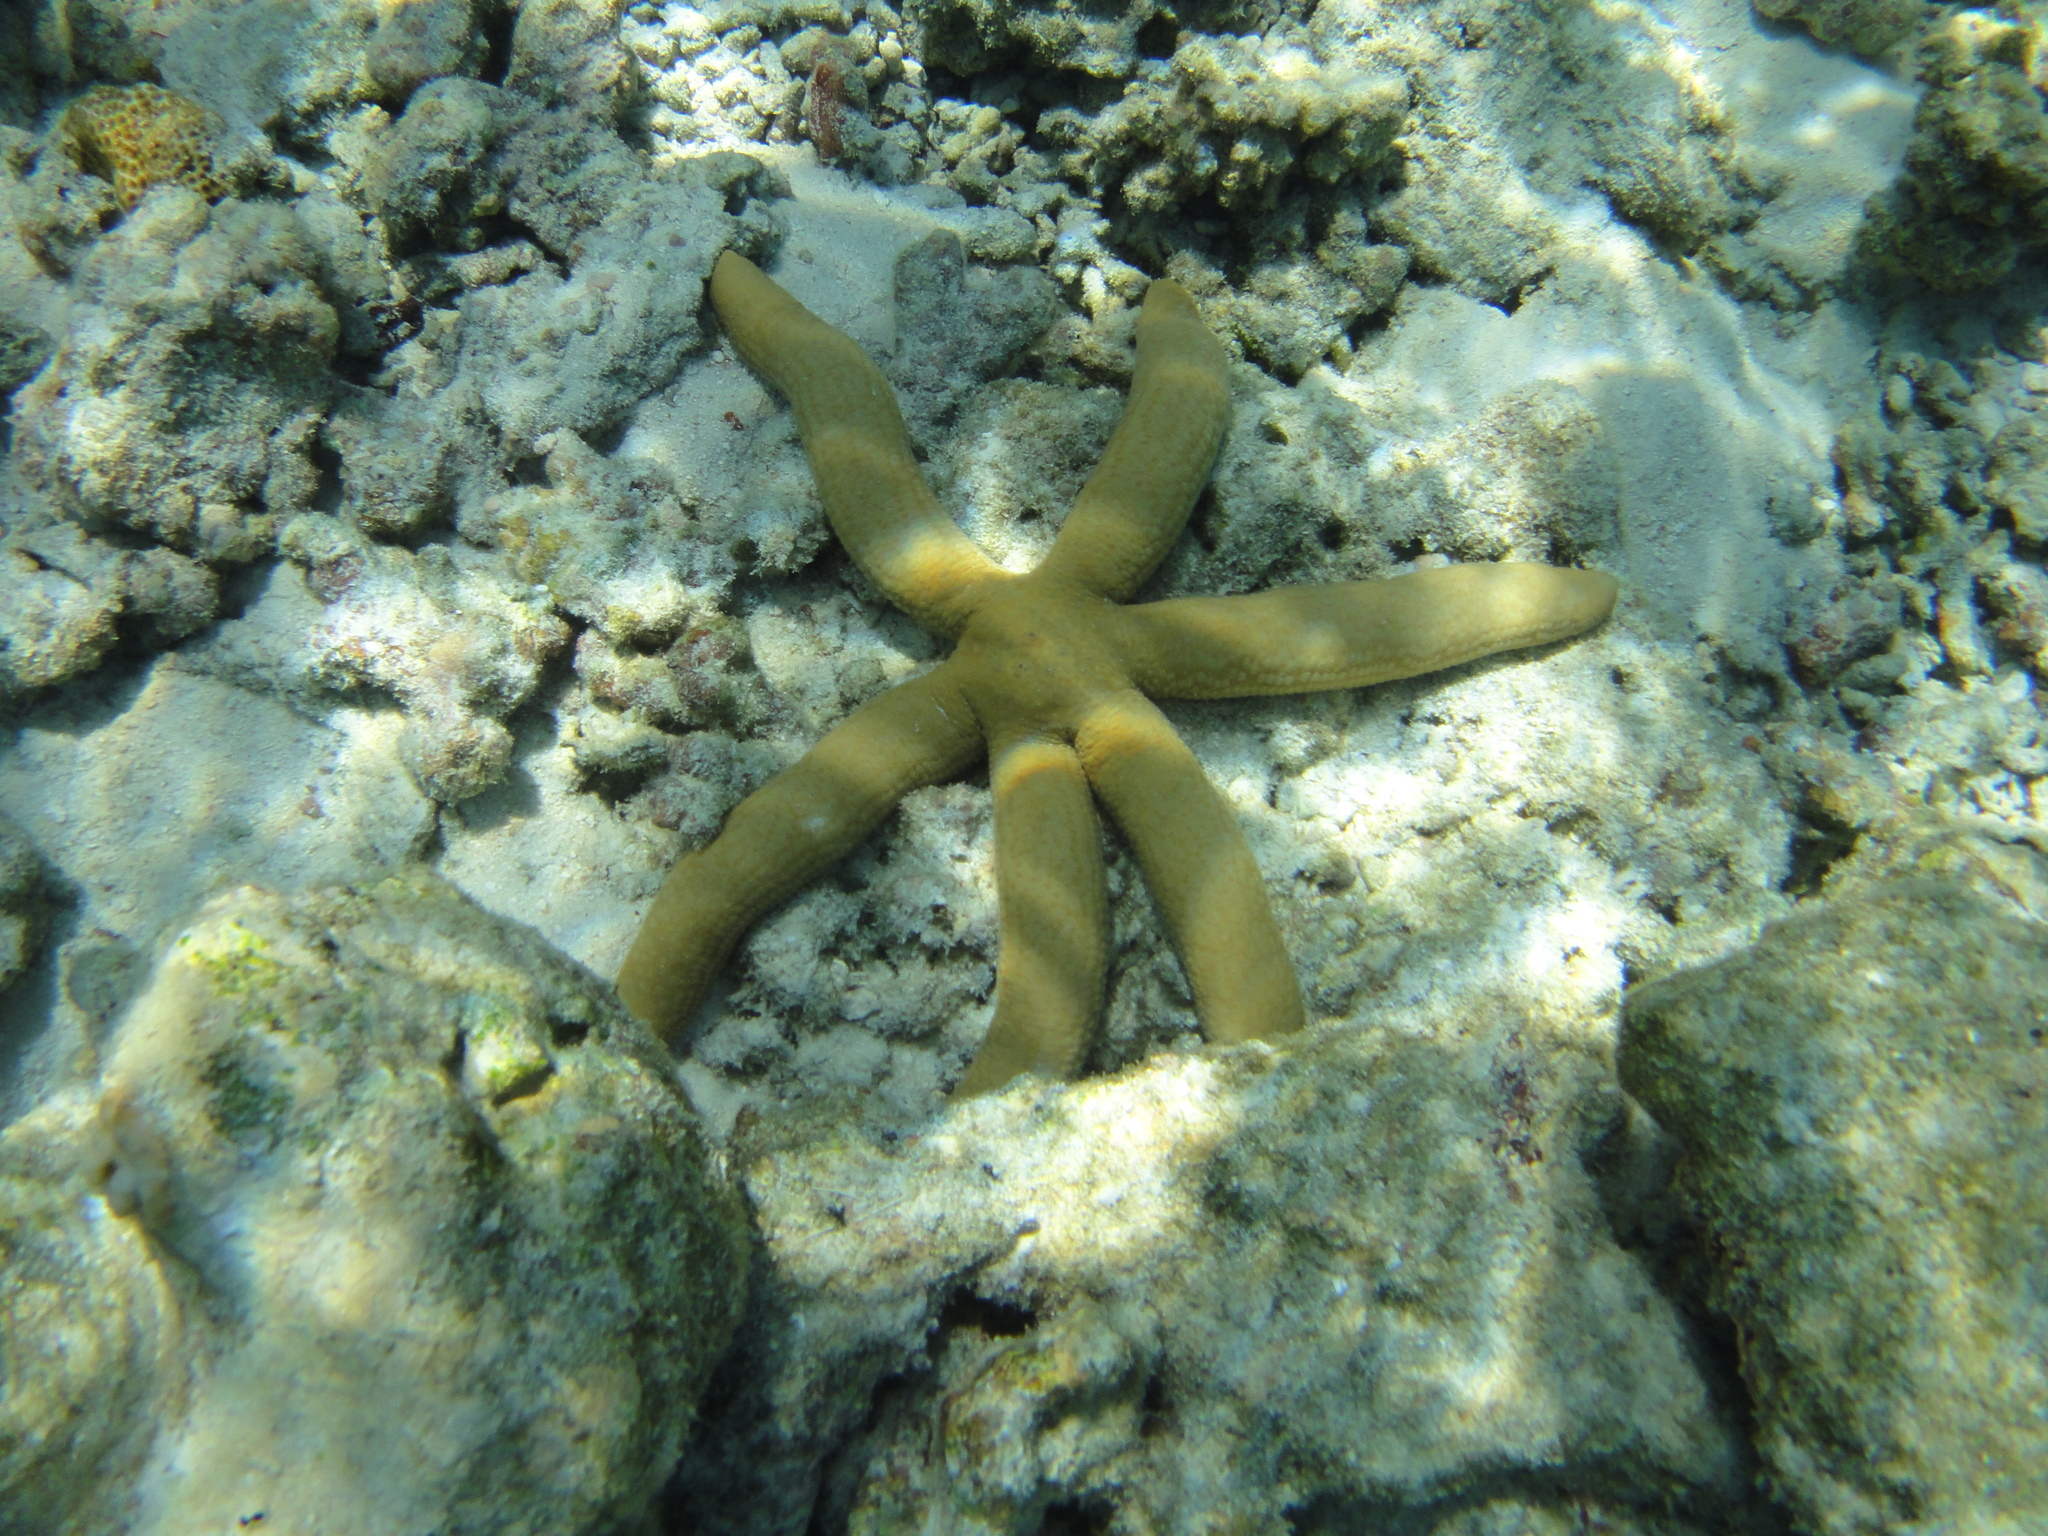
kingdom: Animalia
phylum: Echinodermata
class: Asteroidea
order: Valvatida
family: Ophidiasteridae
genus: Linckia
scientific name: Linckia guildingi
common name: Common comet star
